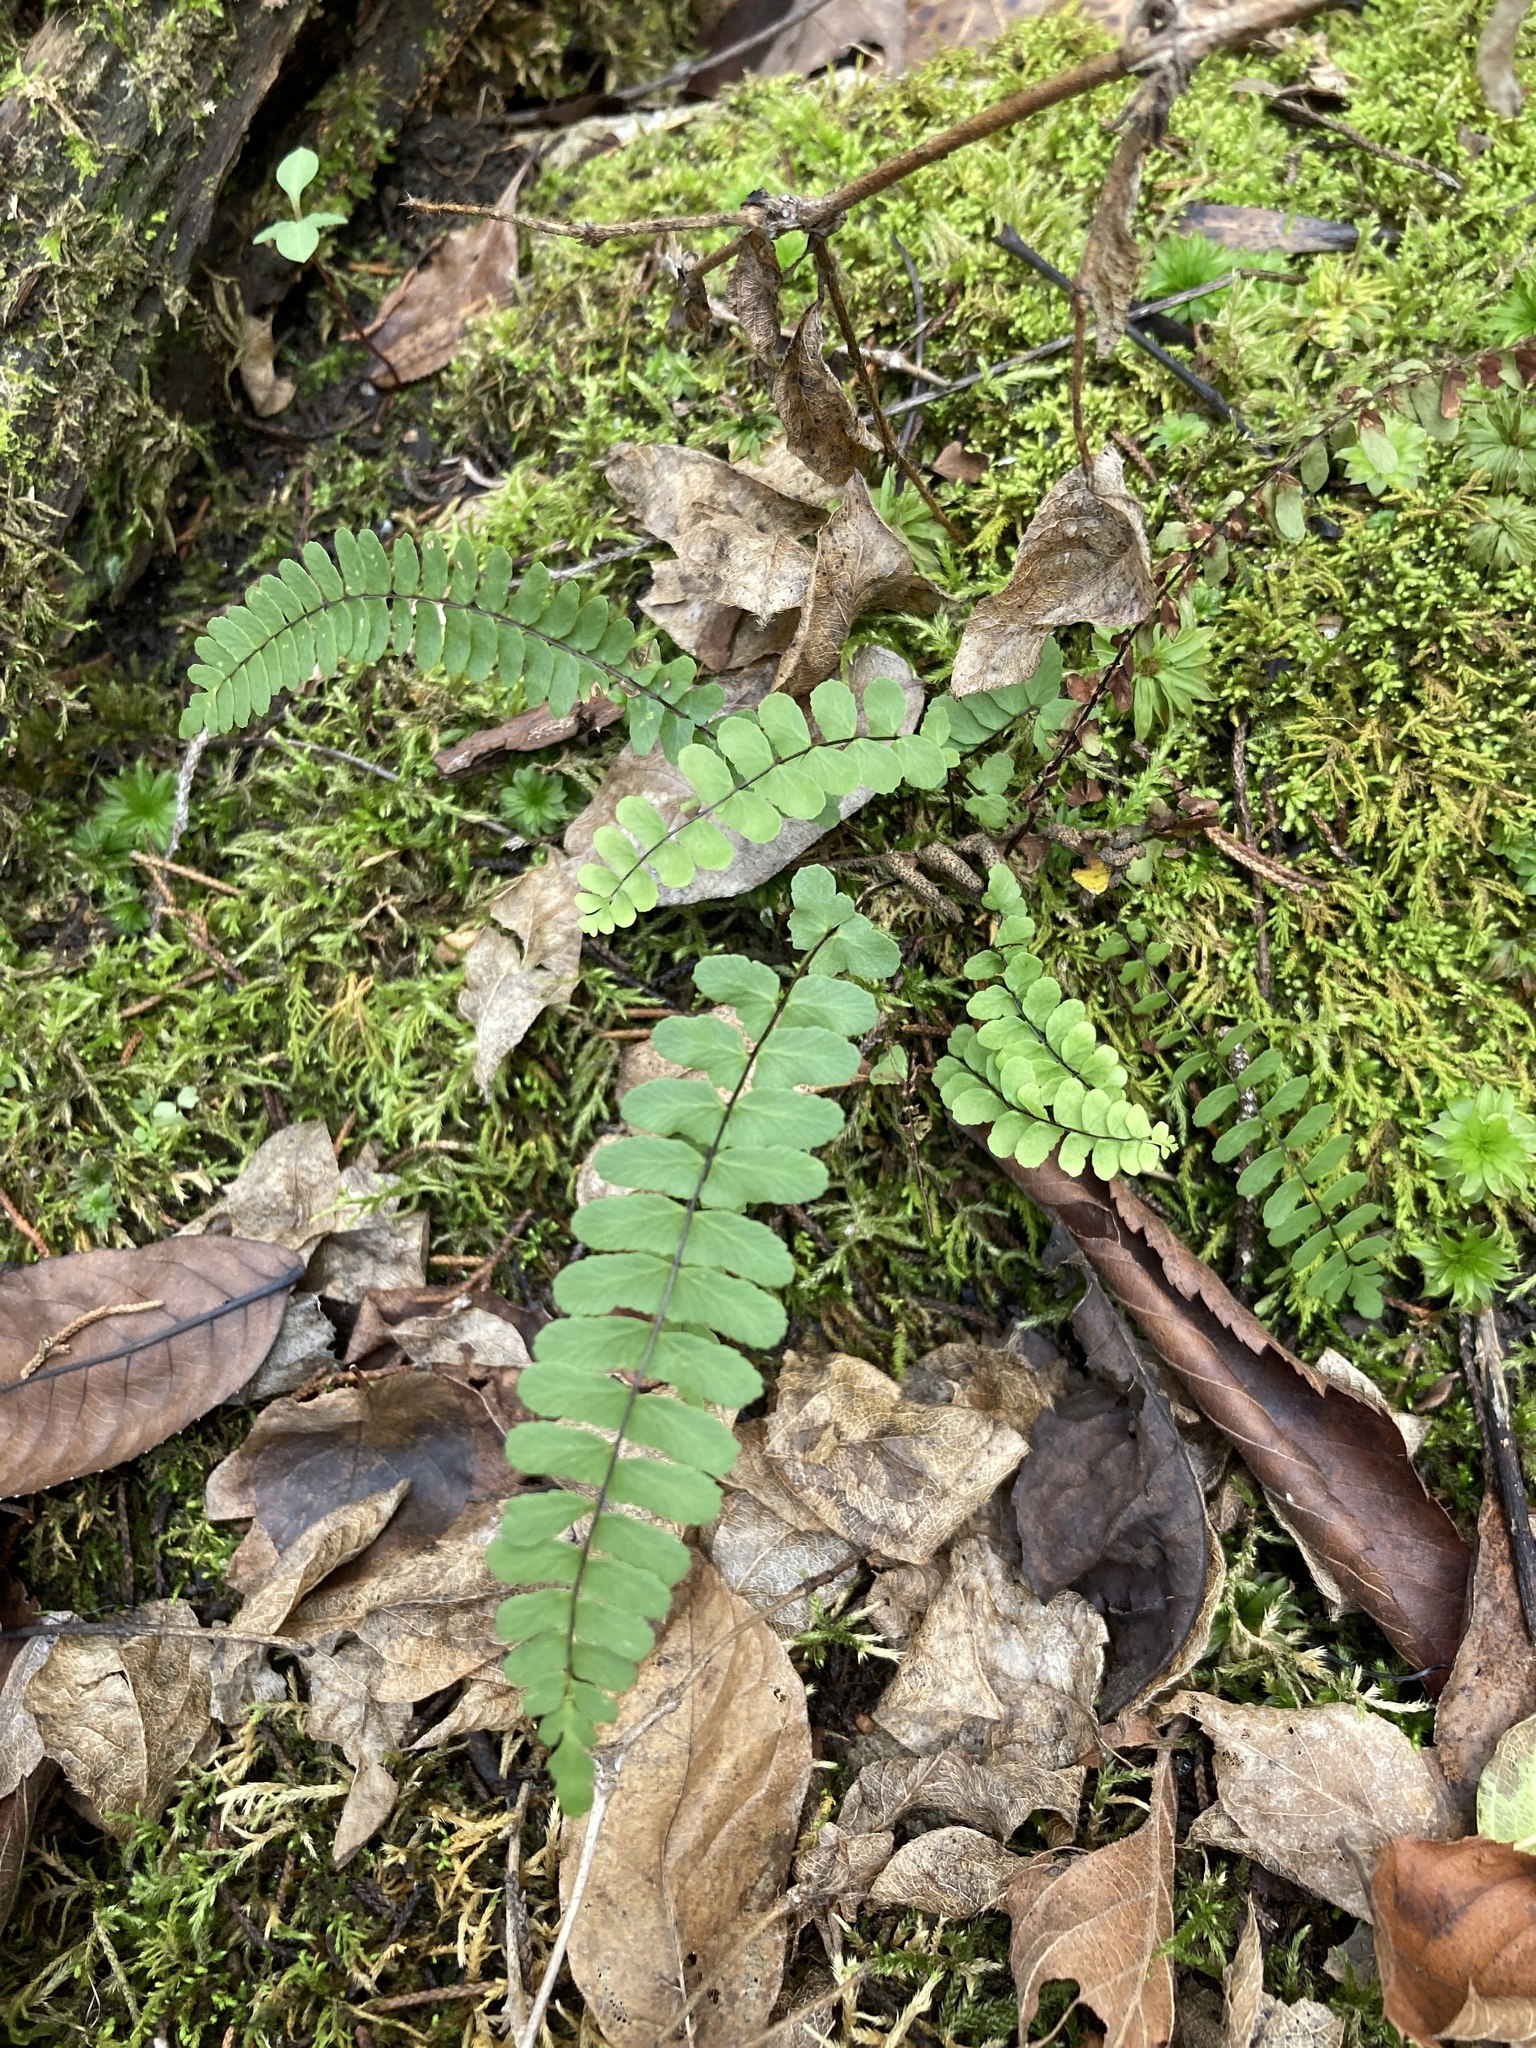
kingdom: Plantae
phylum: Tracheophyta
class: Polypodiopsida
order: Polypodiales
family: Aspleniaceae
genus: Asplenium
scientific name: Asplenium resiliens
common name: Blackstem spleenwort
